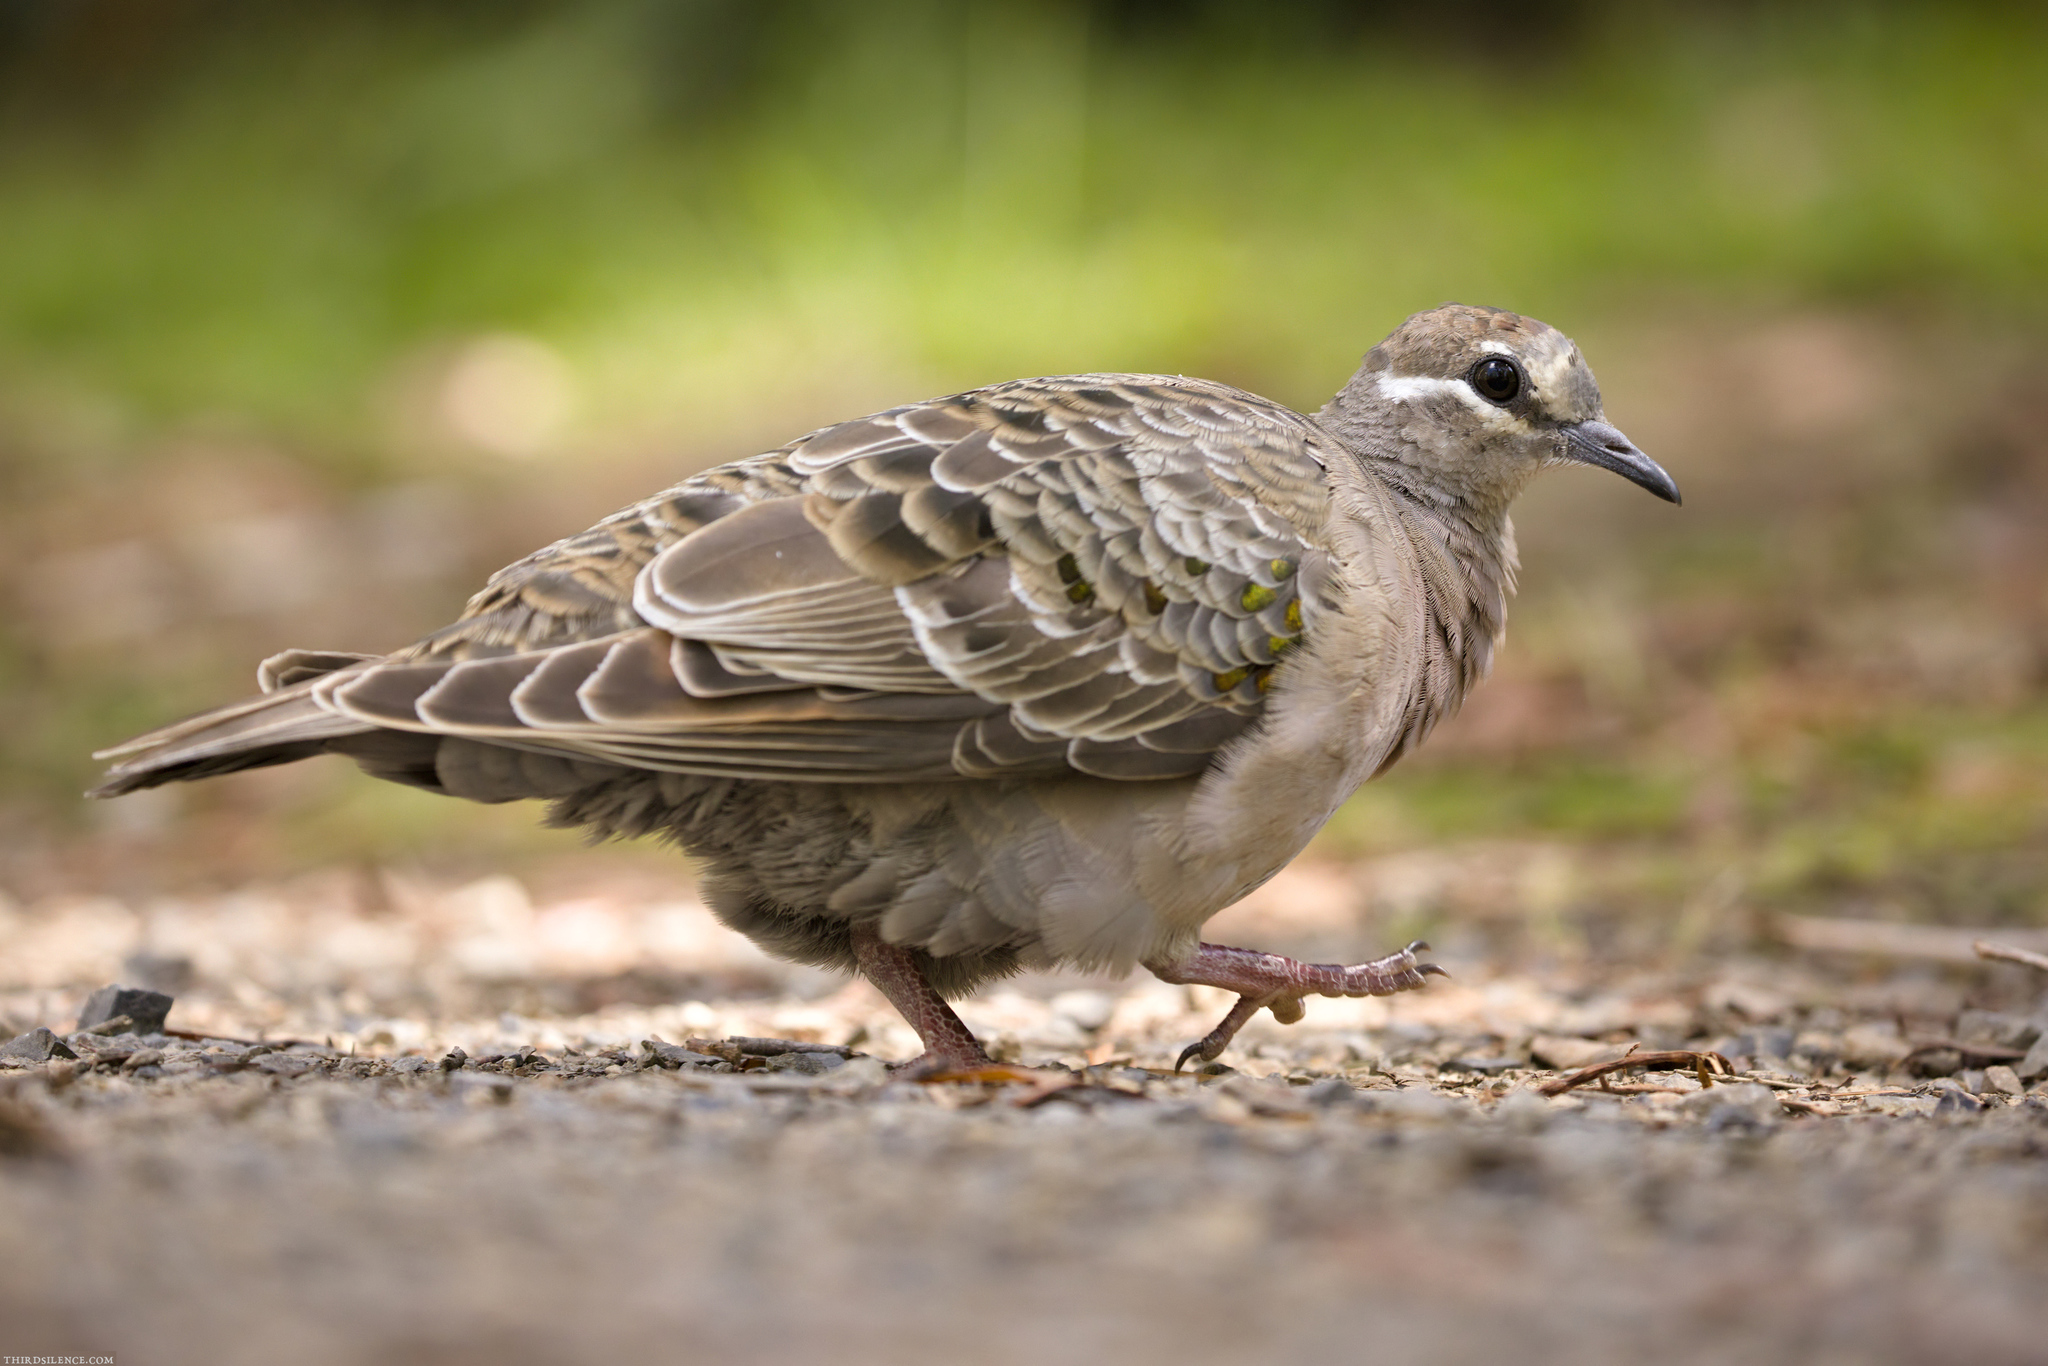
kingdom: Animalia
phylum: Chordata
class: Aves
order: Columbiformes
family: Columbidae
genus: Phaps
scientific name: Phaps chalcoptera
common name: Common bronzewing
